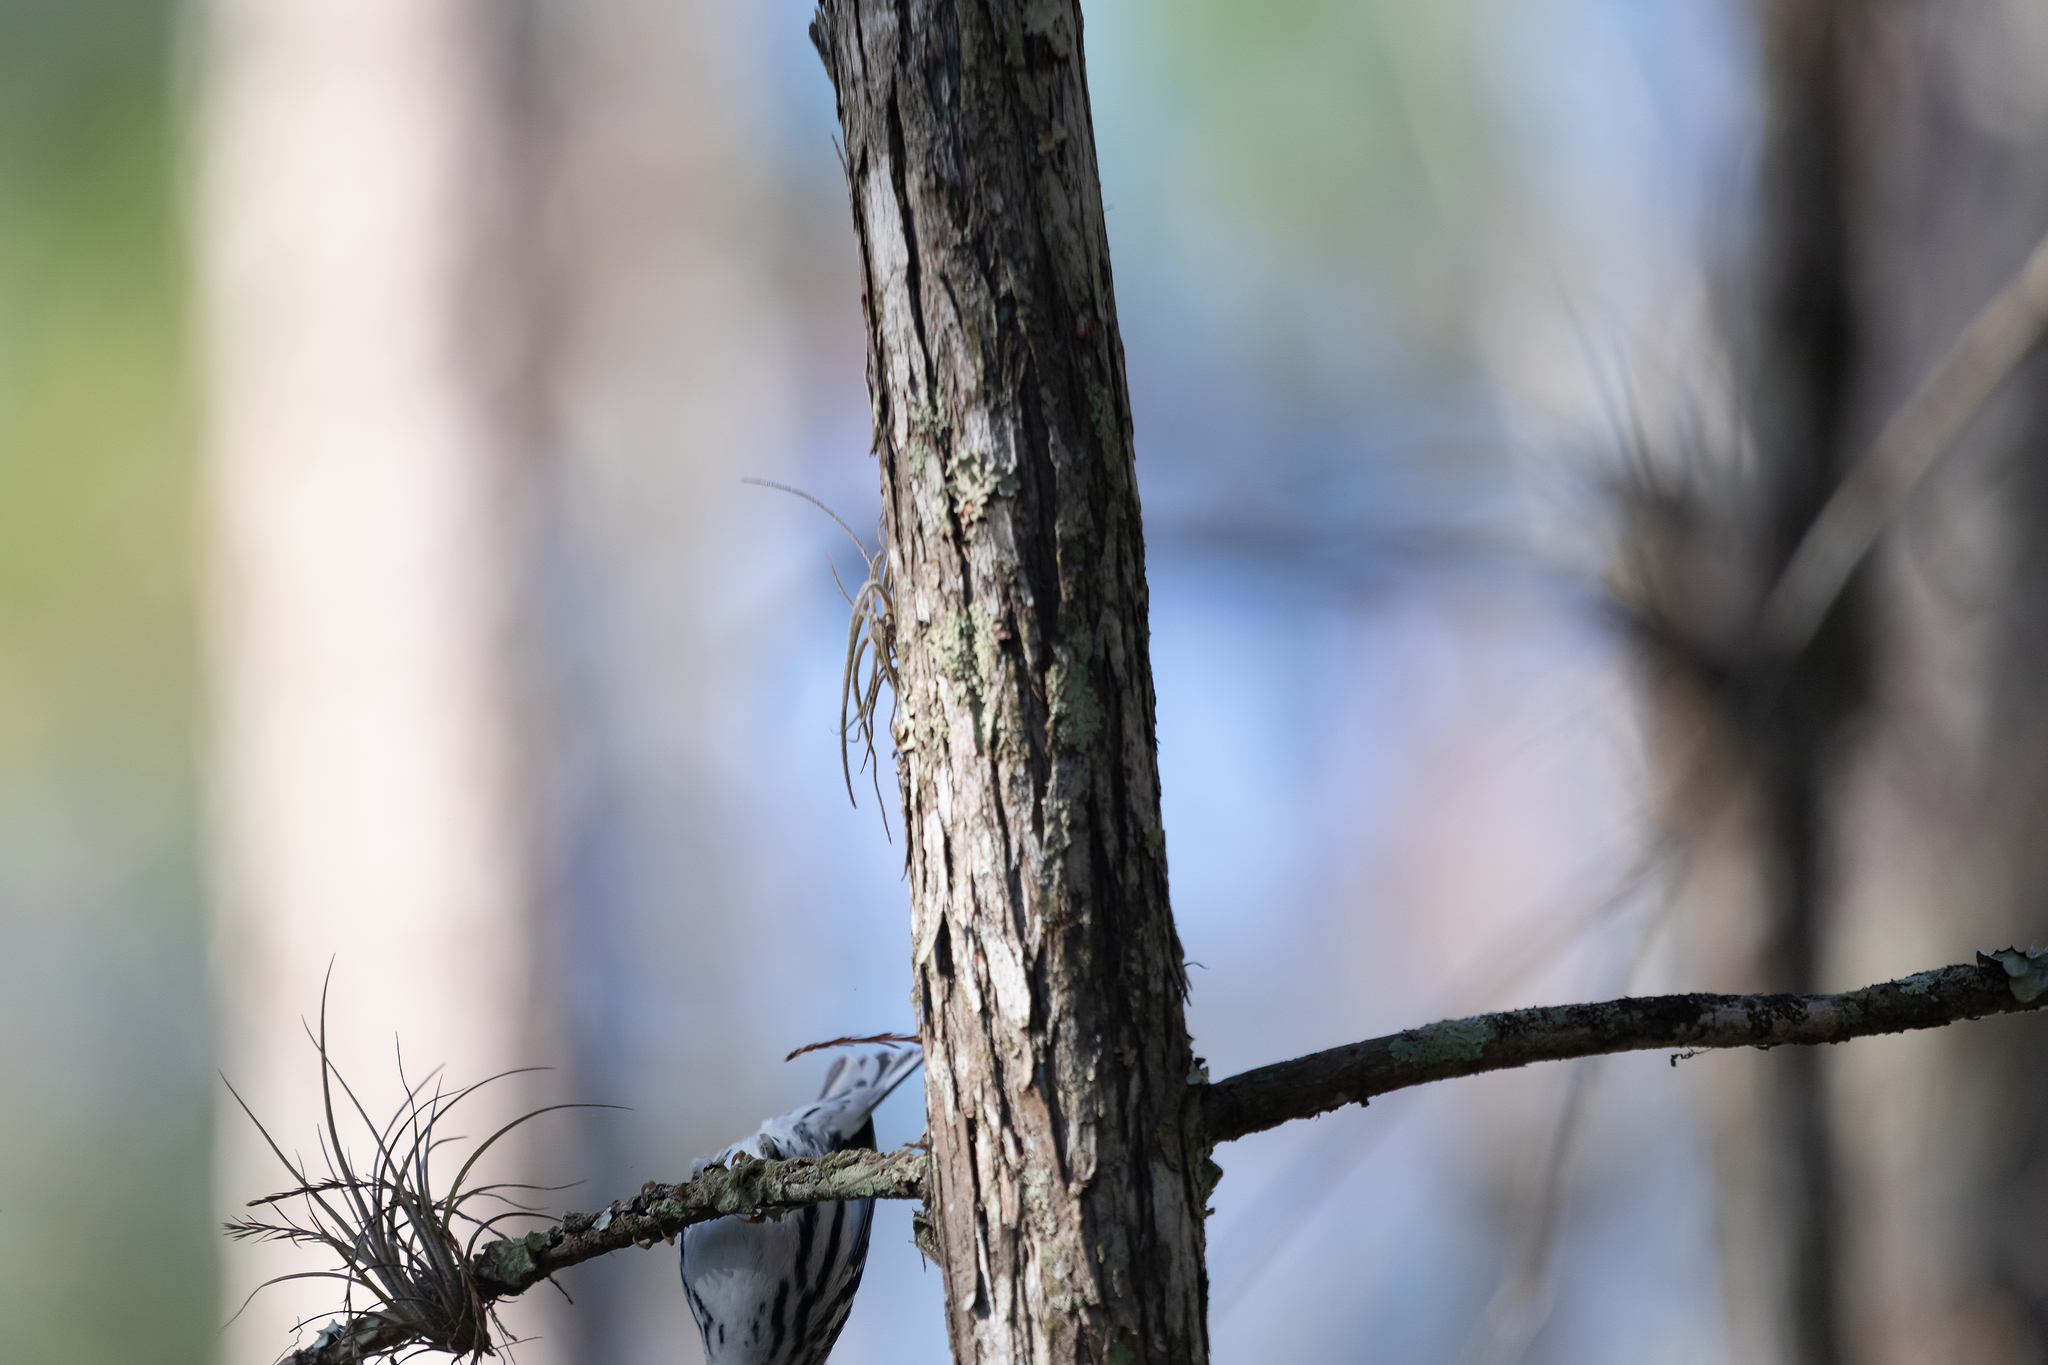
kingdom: Animalia
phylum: Chordata
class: Aves
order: Passeriformes
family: Parulidae
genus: Mniotilta
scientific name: Mniotilta varia
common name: Black-and-white warbler
